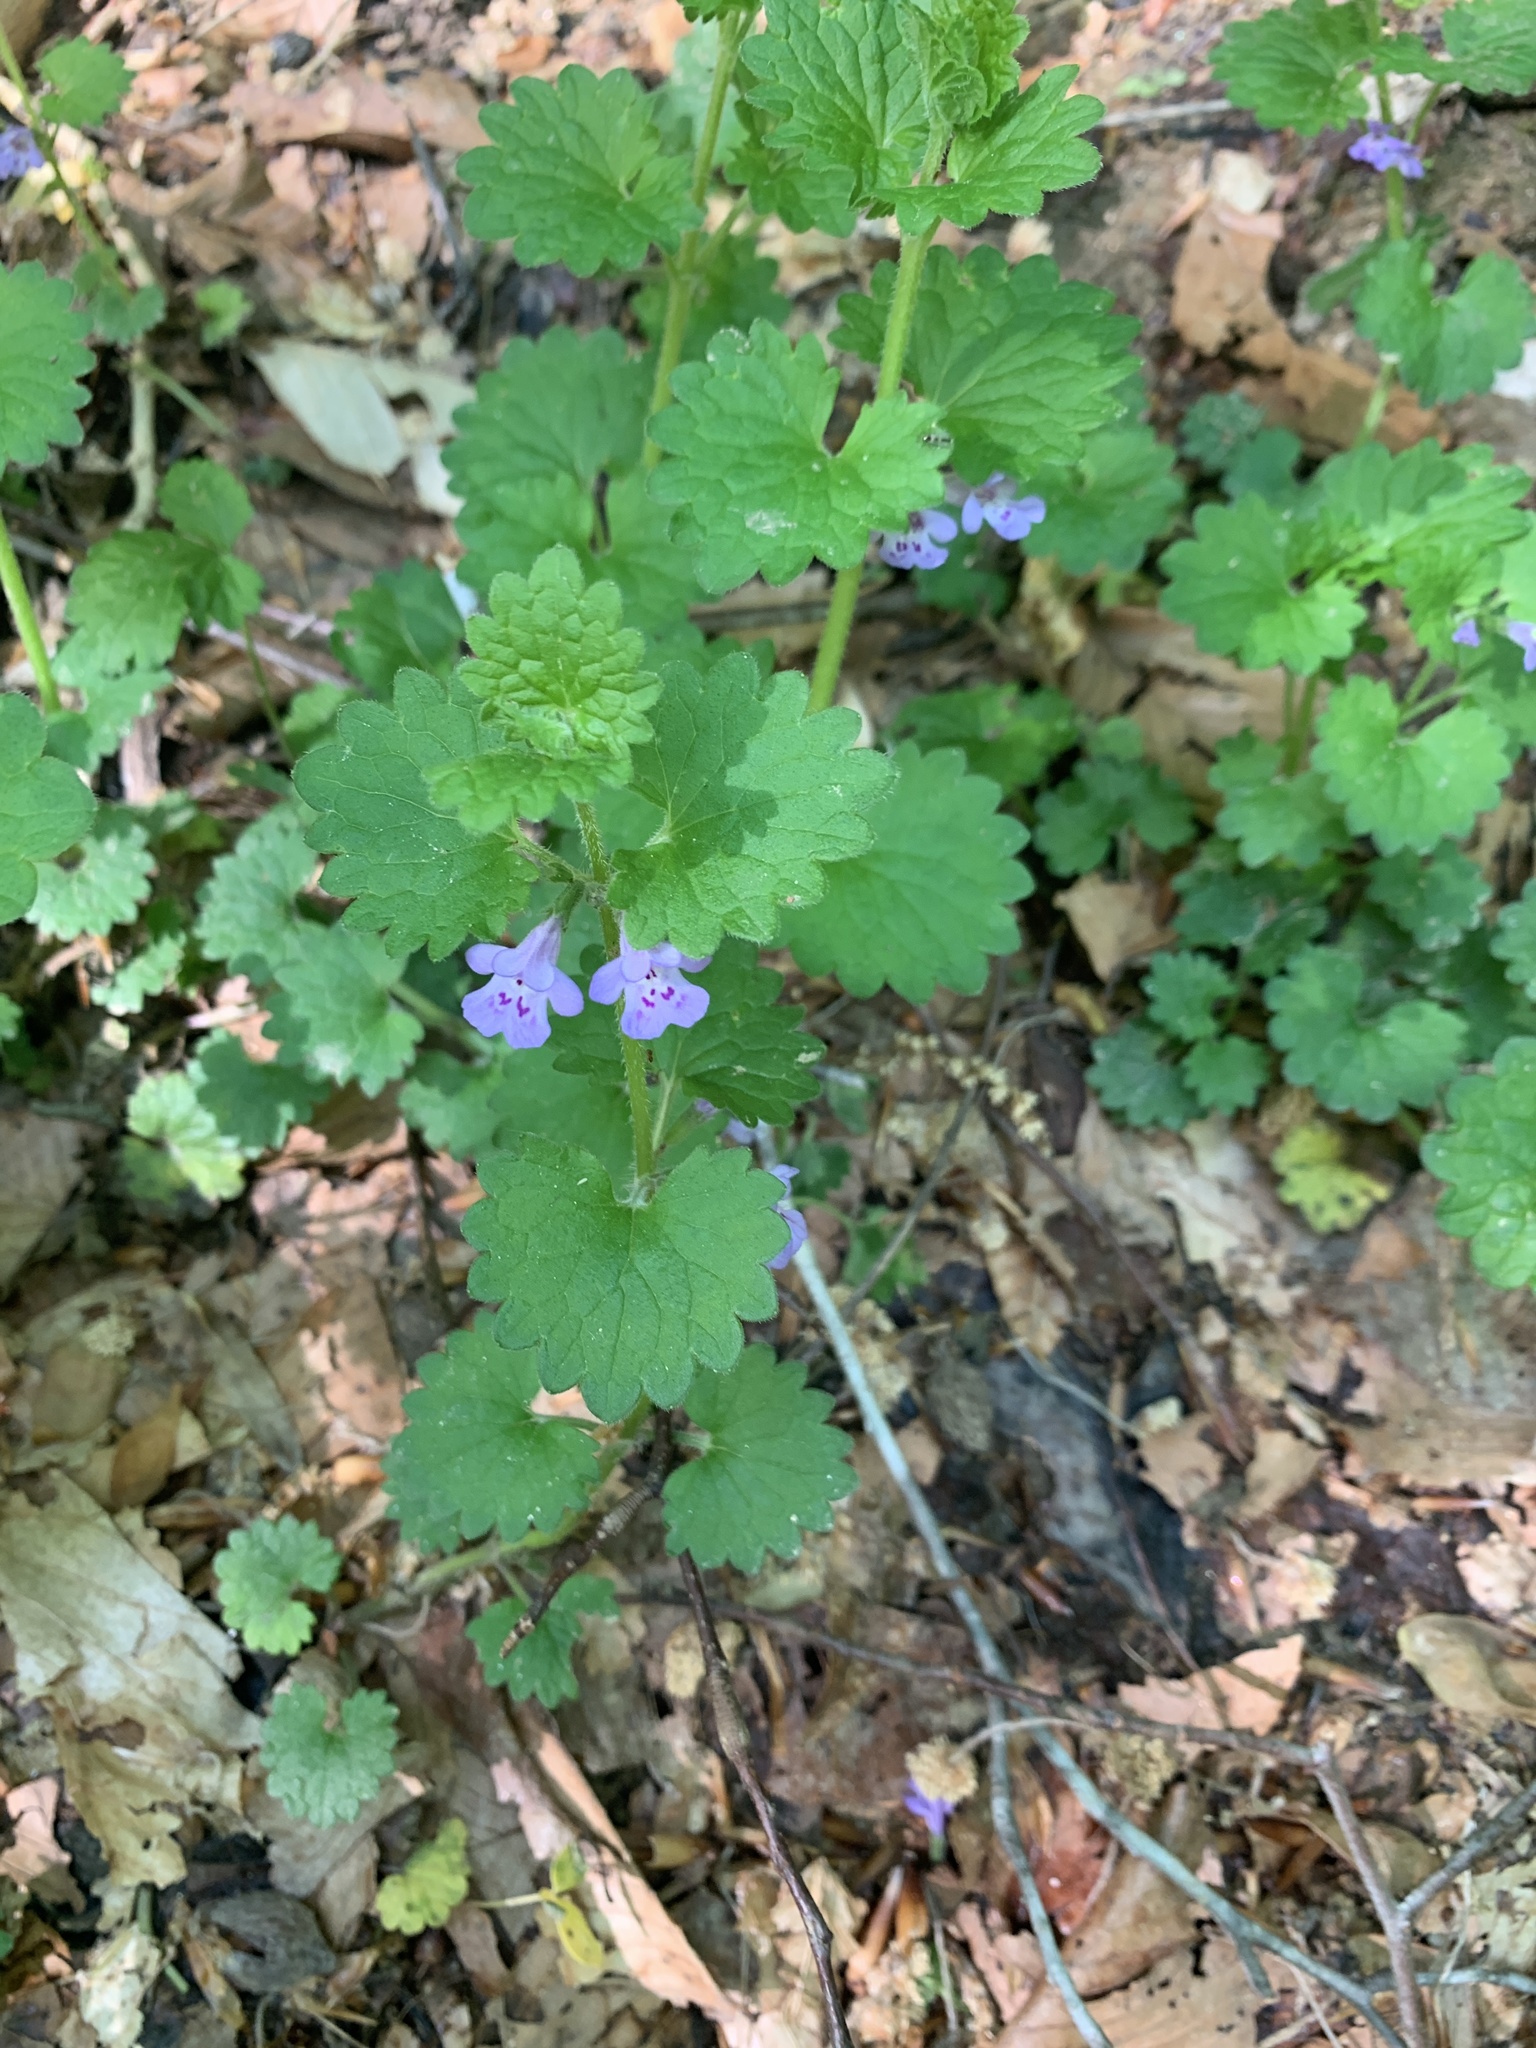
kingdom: Plantae
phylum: Tracheophyta
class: Magnoliopsida
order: Lamiales
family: Lamiaceae
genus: Glechoma
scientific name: Glechoma hederacea
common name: Ground ivy
